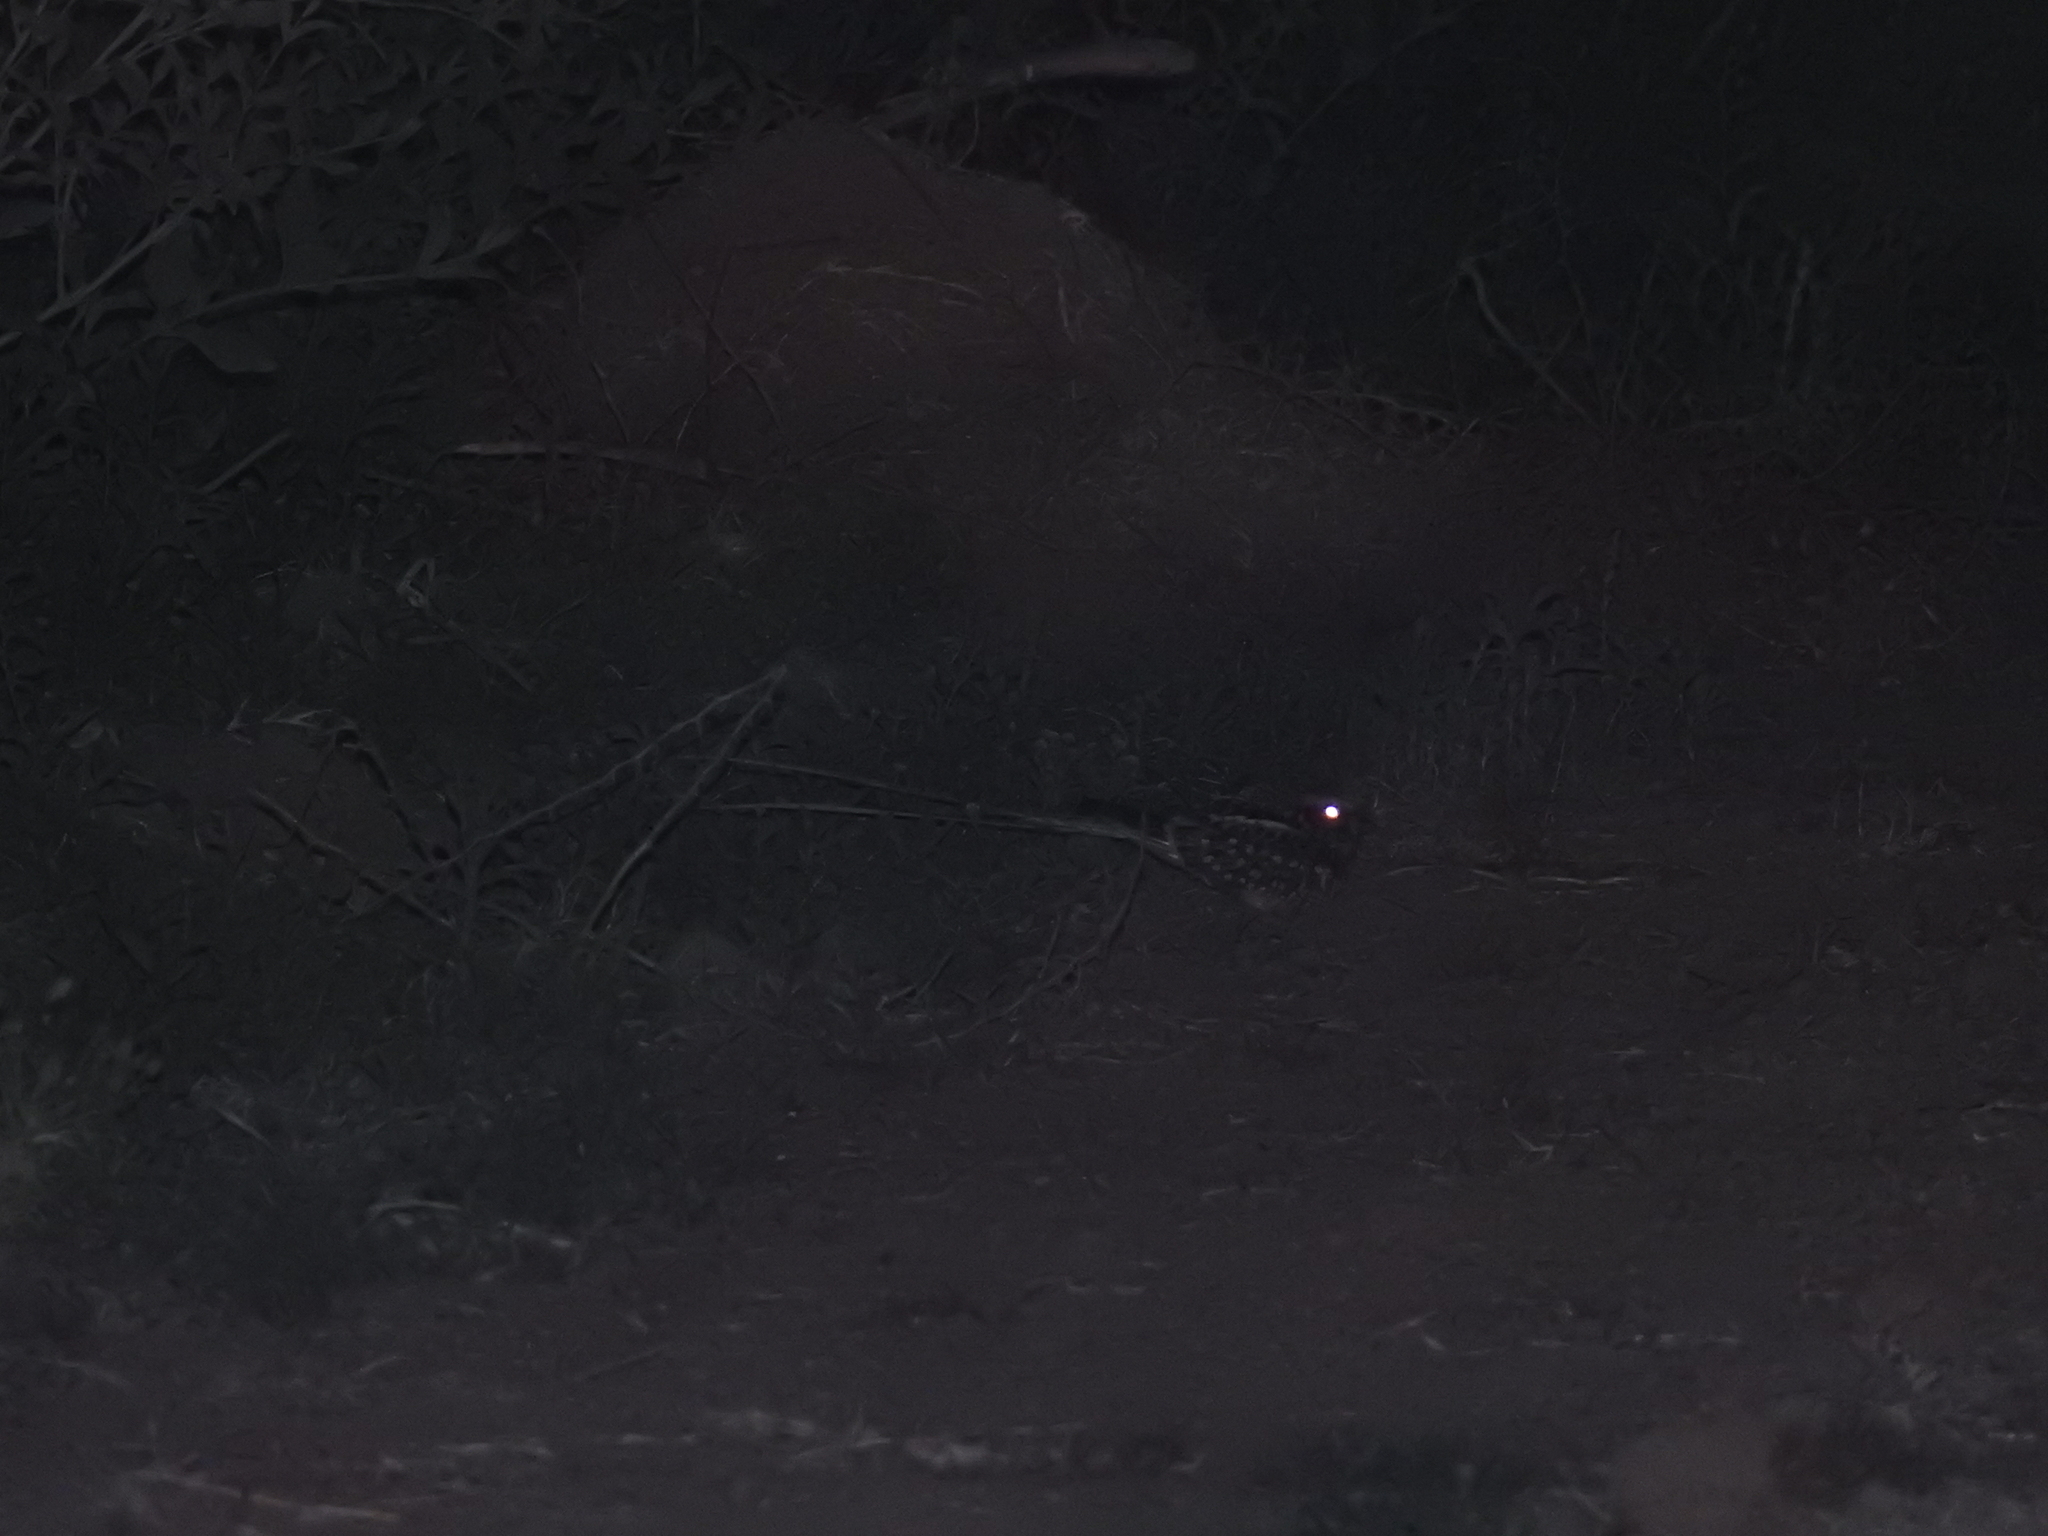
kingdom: Animalia
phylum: Chordata
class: Aves
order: Caprimulgiformes
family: Caprimulgidae
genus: Hydropsalis
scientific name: Hydropsalis torquata
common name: Scissor-tailed nightjar
